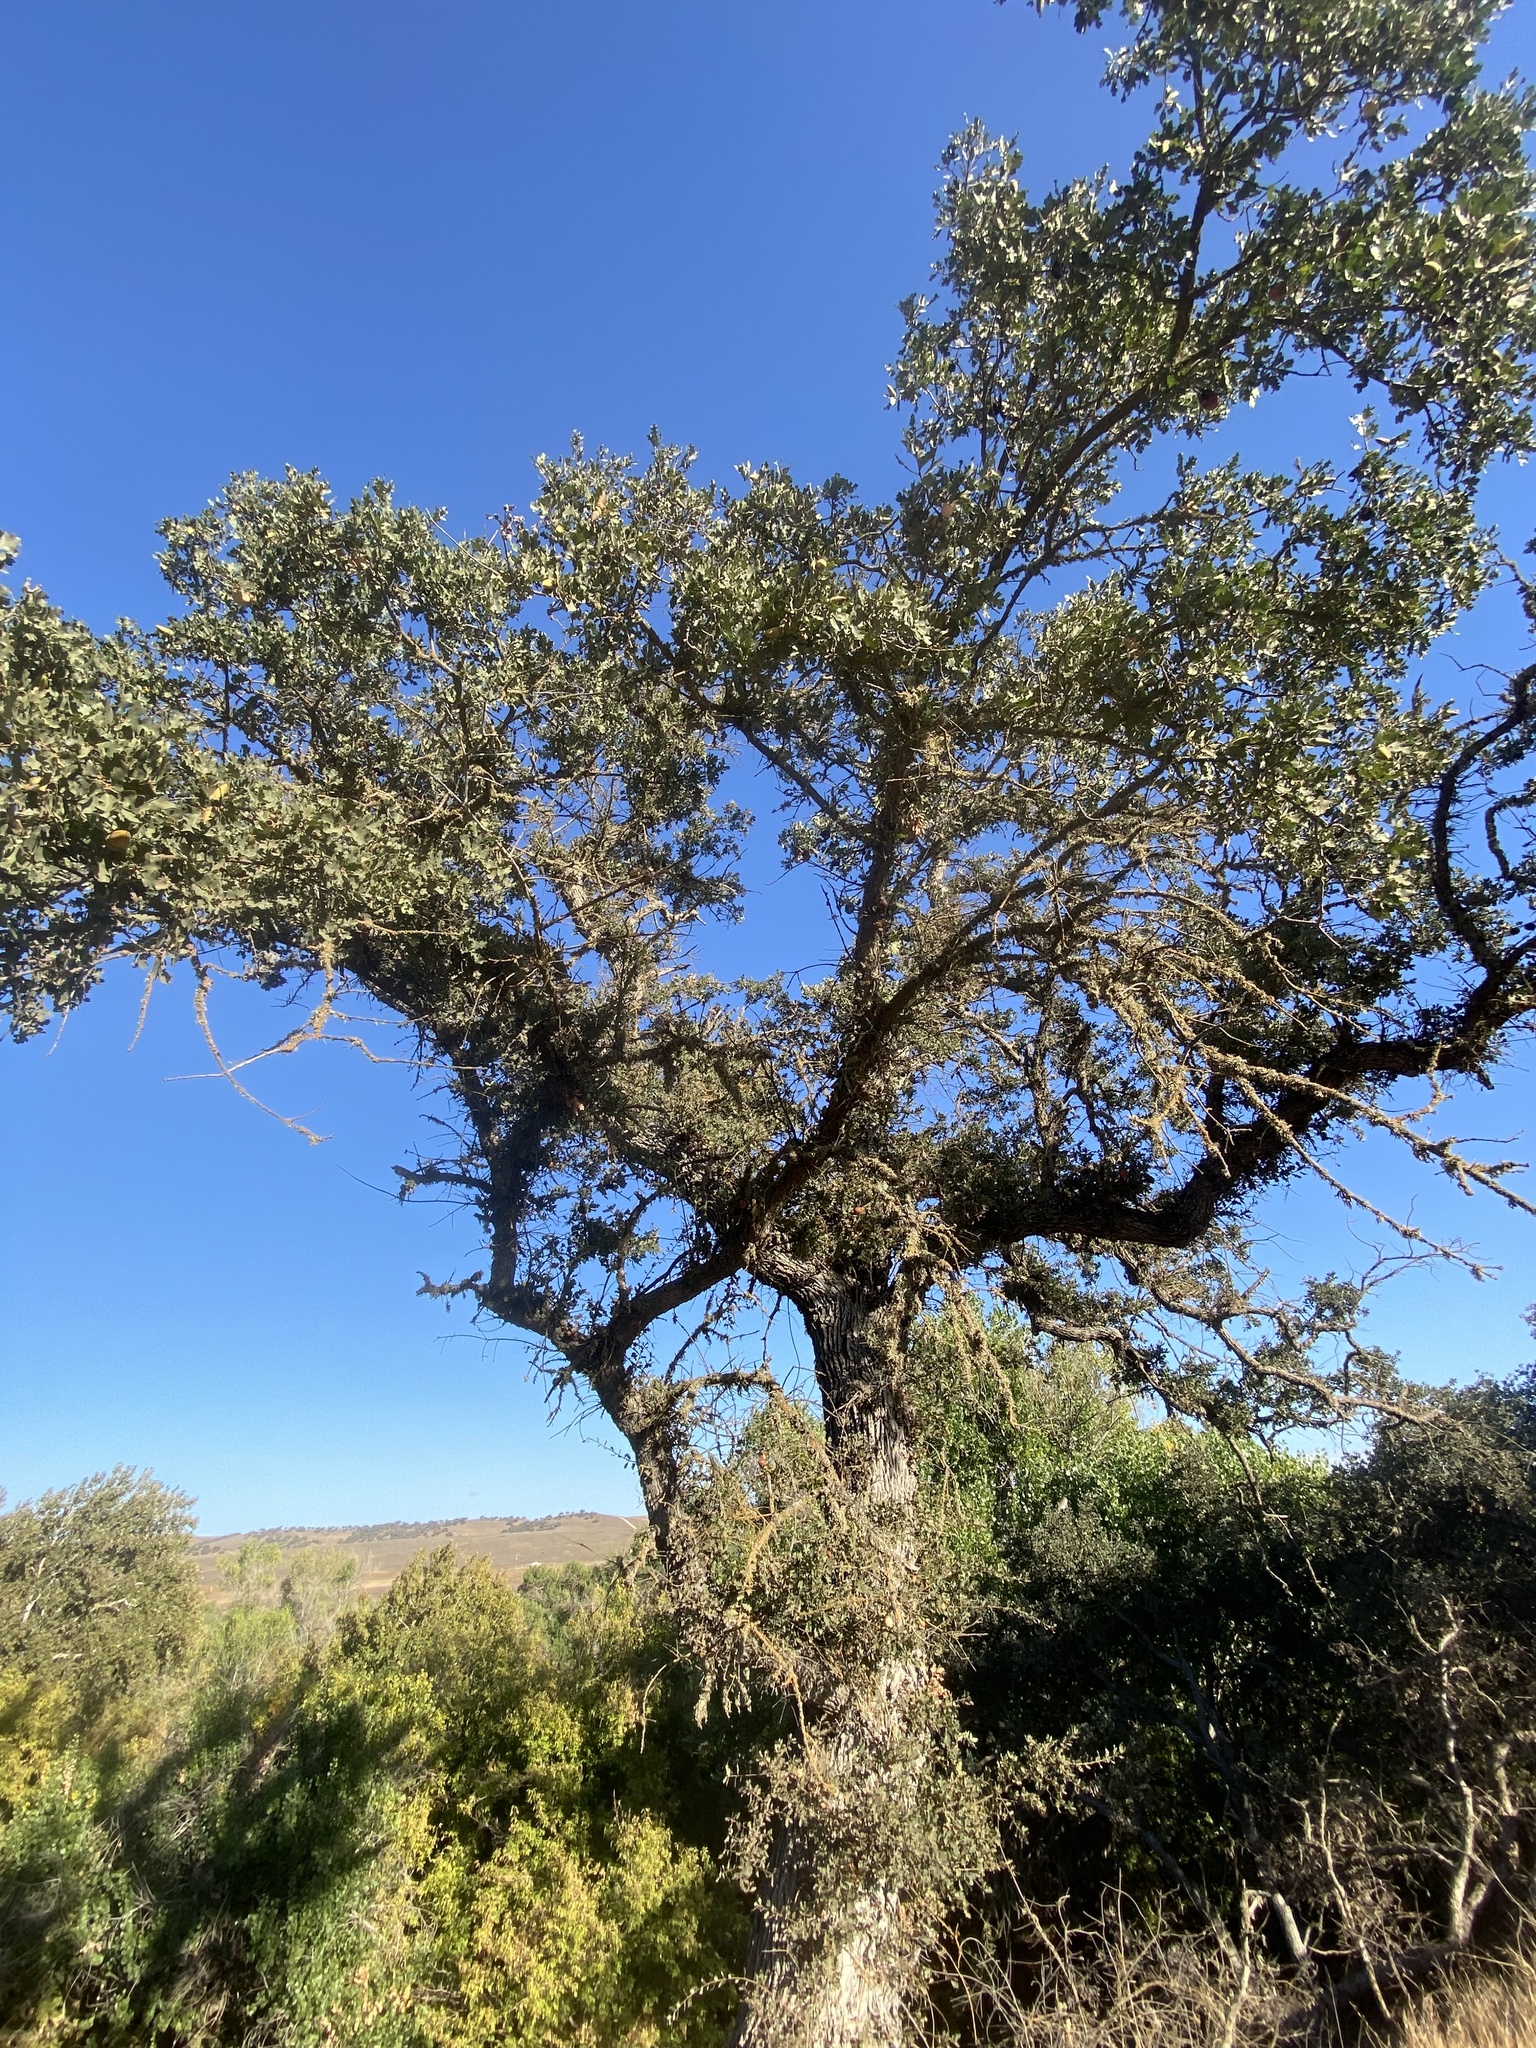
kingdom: Plantae
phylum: Tracheophyta
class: Magnoliopsida
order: Fagales
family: Fagaceae
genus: Quercus
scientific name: Quercus lobata
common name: Valley oak
